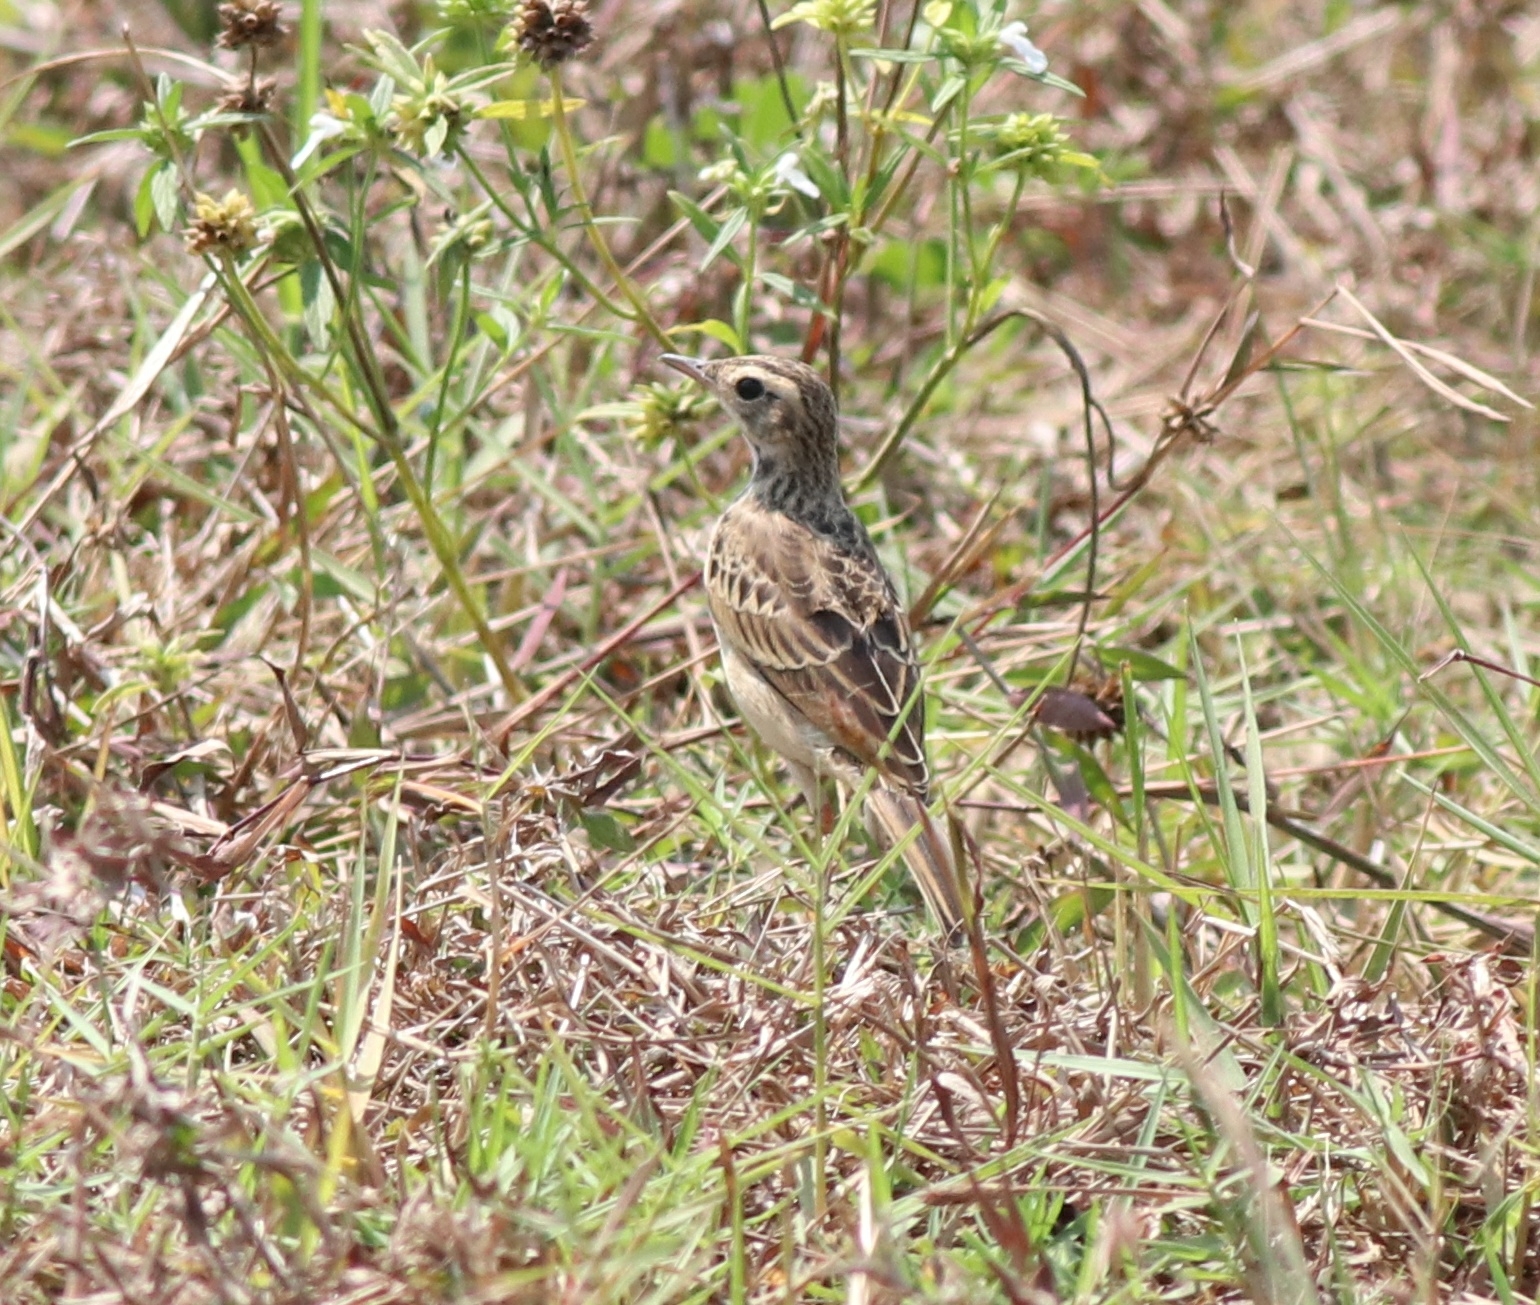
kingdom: Animalia
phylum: Chordata
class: Aves
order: Passeriformes
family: Motacillidae
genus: Anthus
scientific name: Anthus rufulus
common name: Paddyfield pipit
